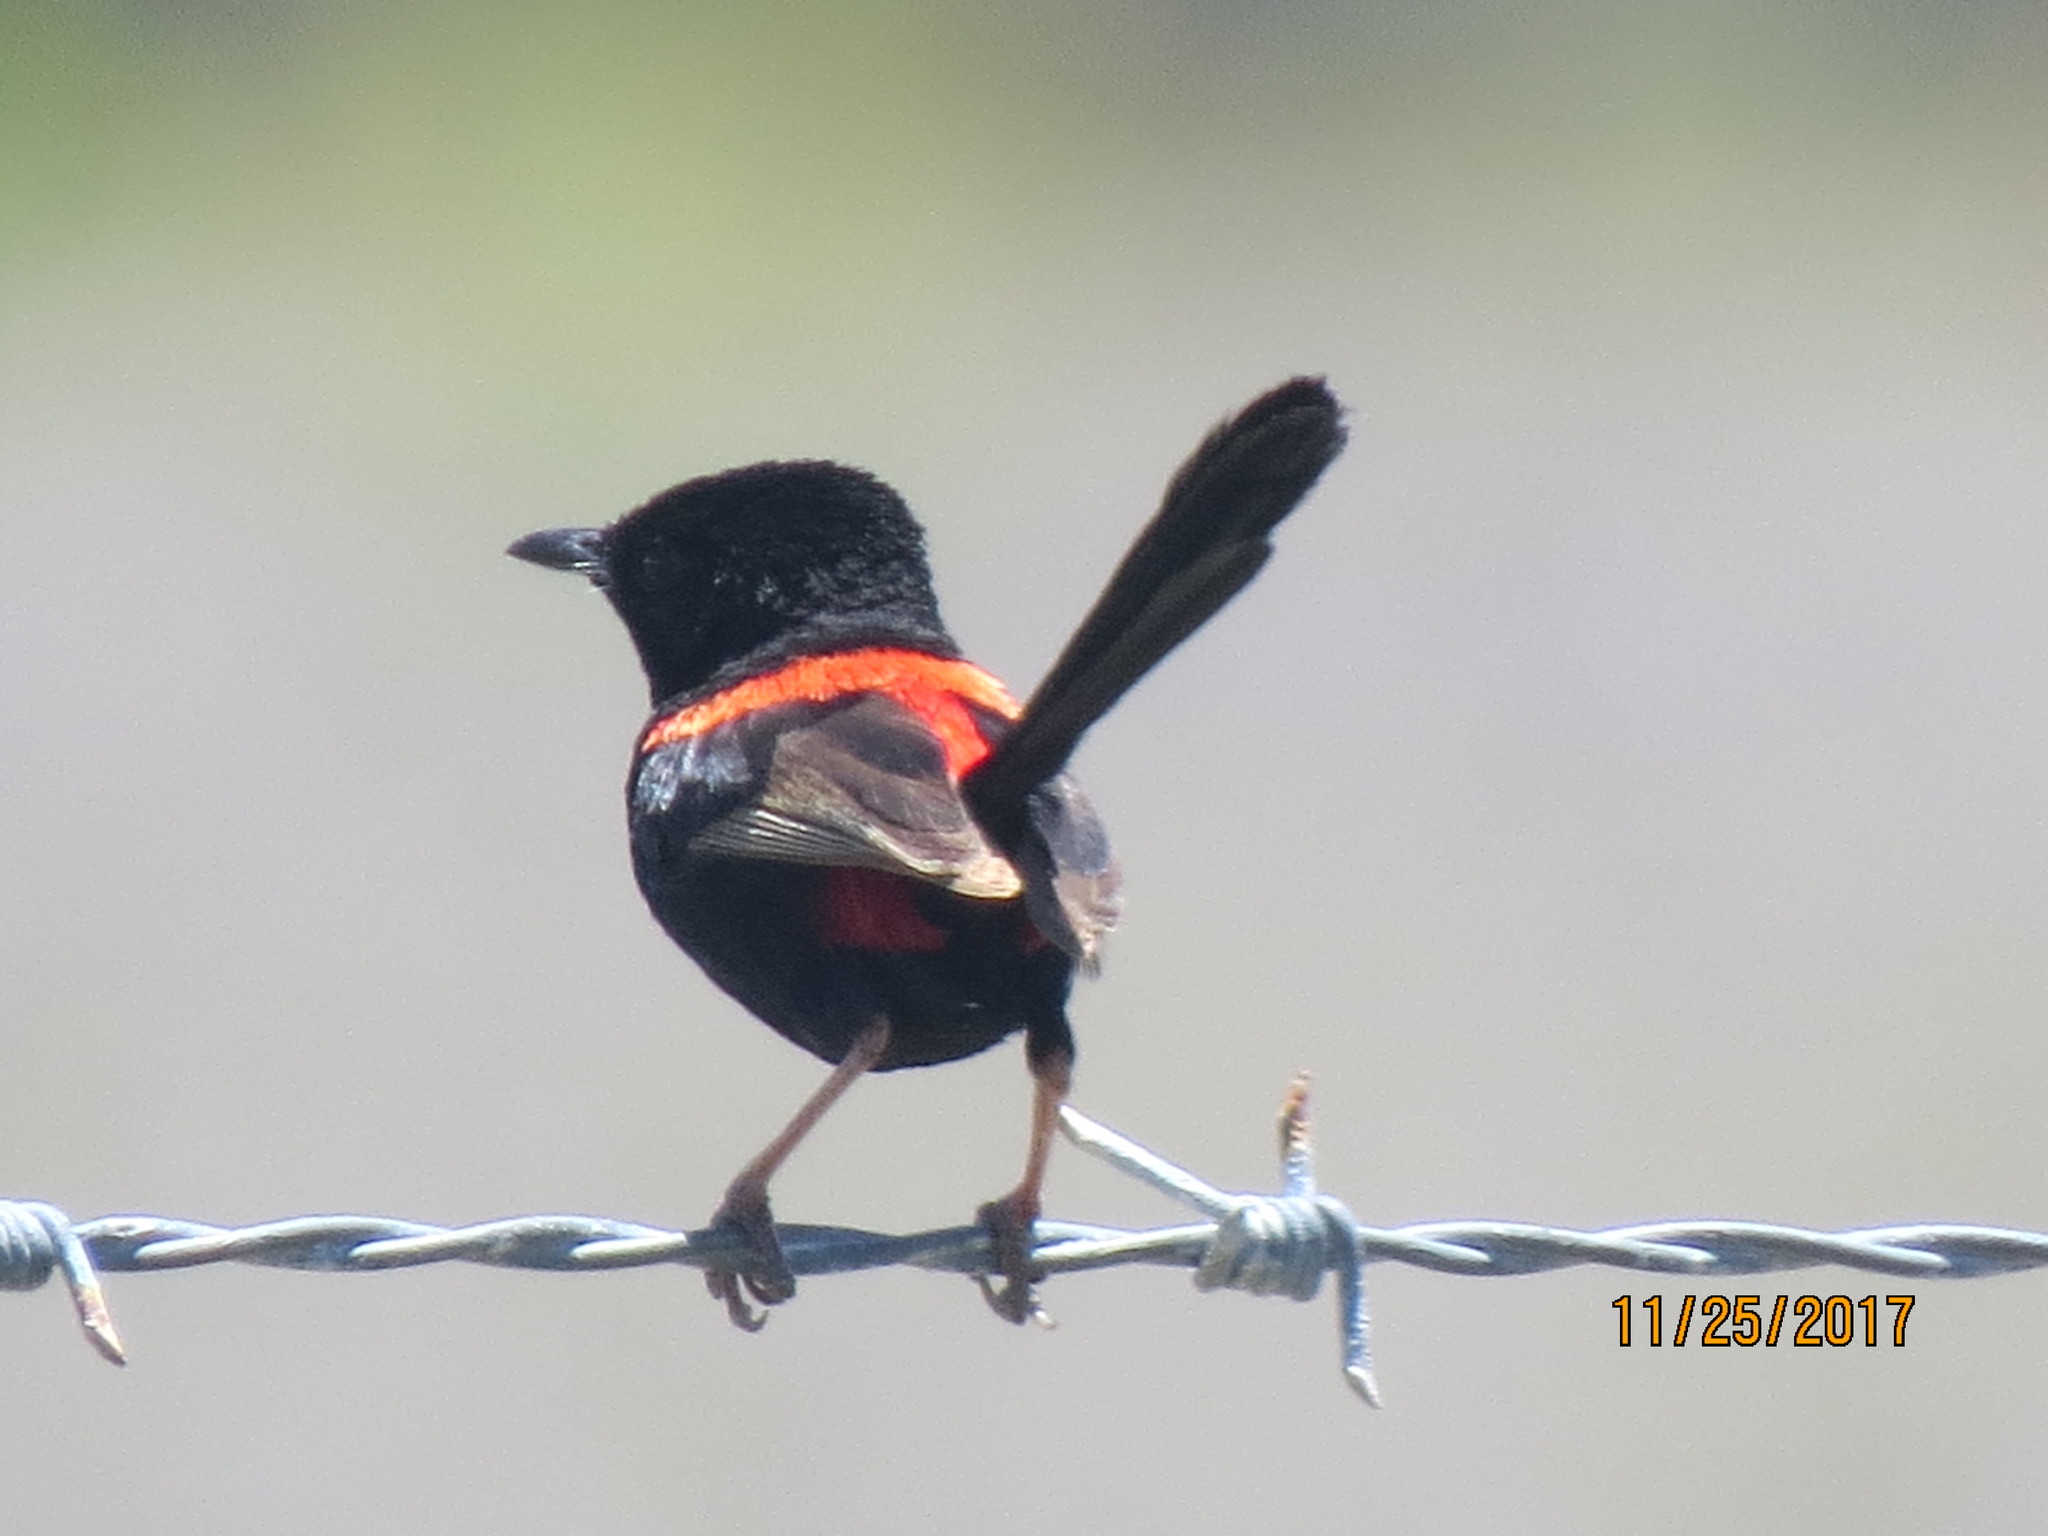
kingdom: Animalia
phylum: Chordata
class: Aves
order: Passeriformes
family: Maluridae
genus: Malurus
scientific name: Malurus melanocephalus
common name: Red-backed fairywren
